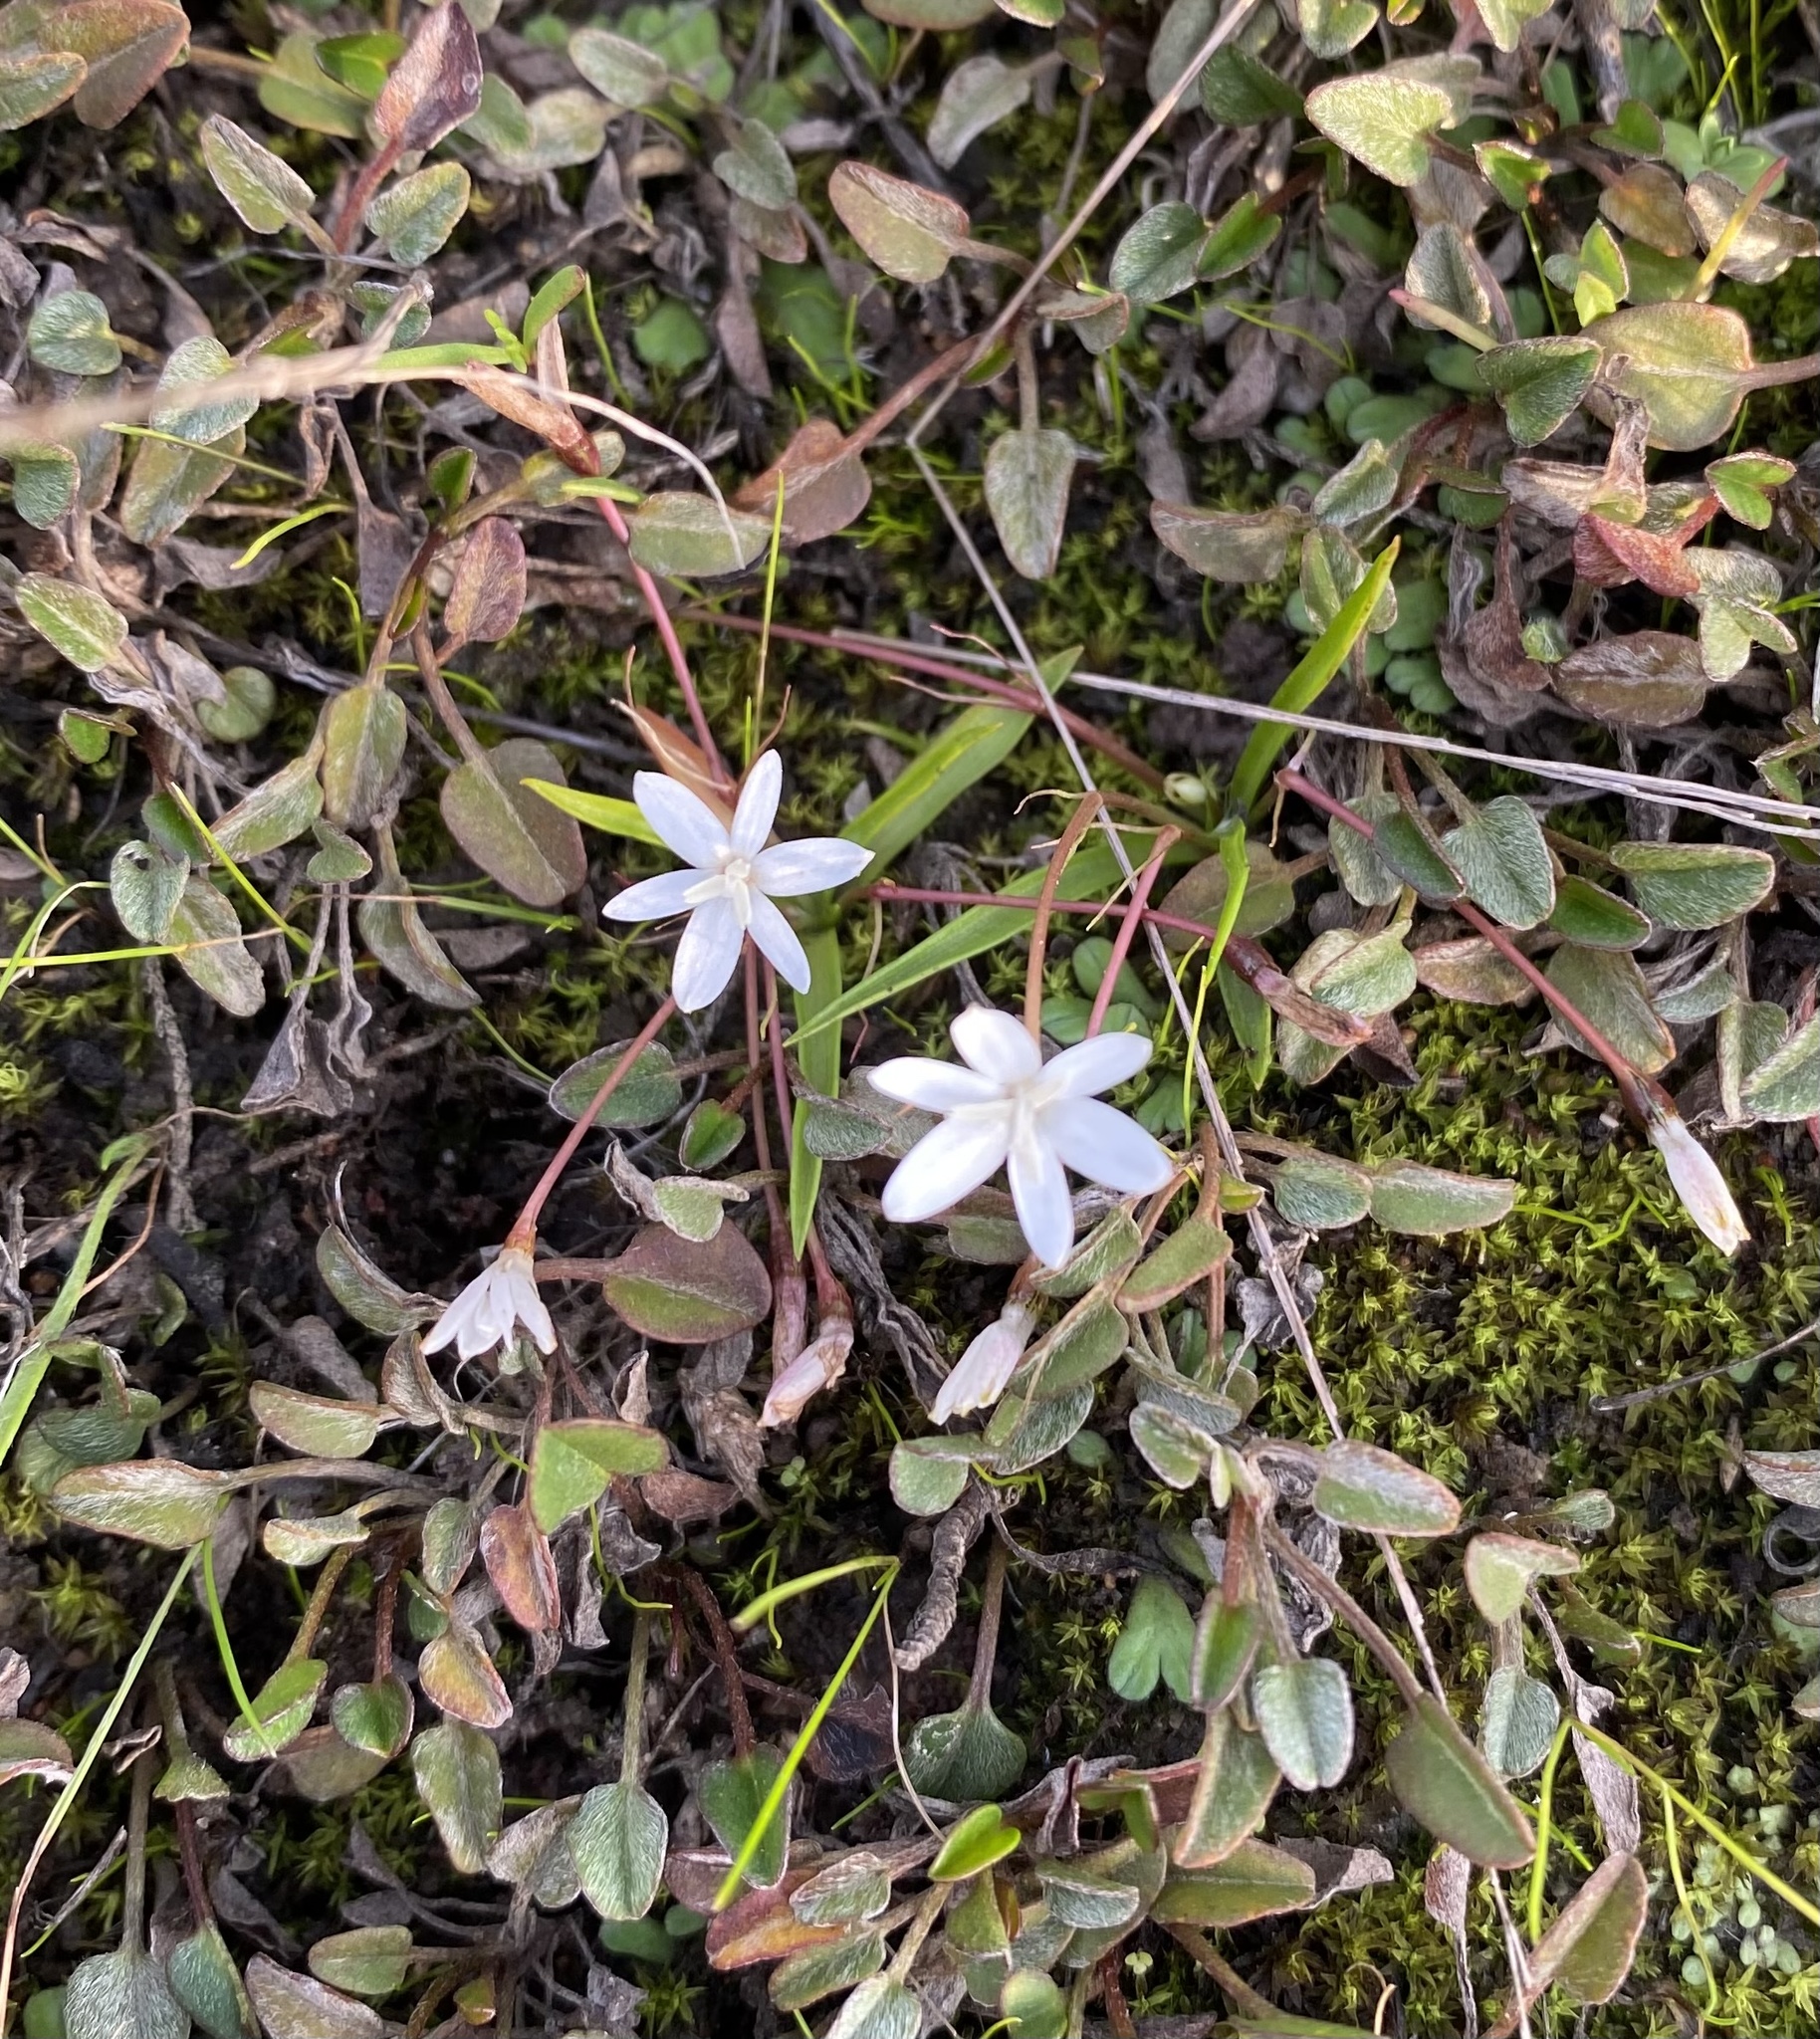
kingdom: Plantae
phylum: Tracheophyta
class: Liliopsida
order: Asparagales
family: Hypoxidaceae
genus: Pauridia
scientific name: Pauridia minuta
